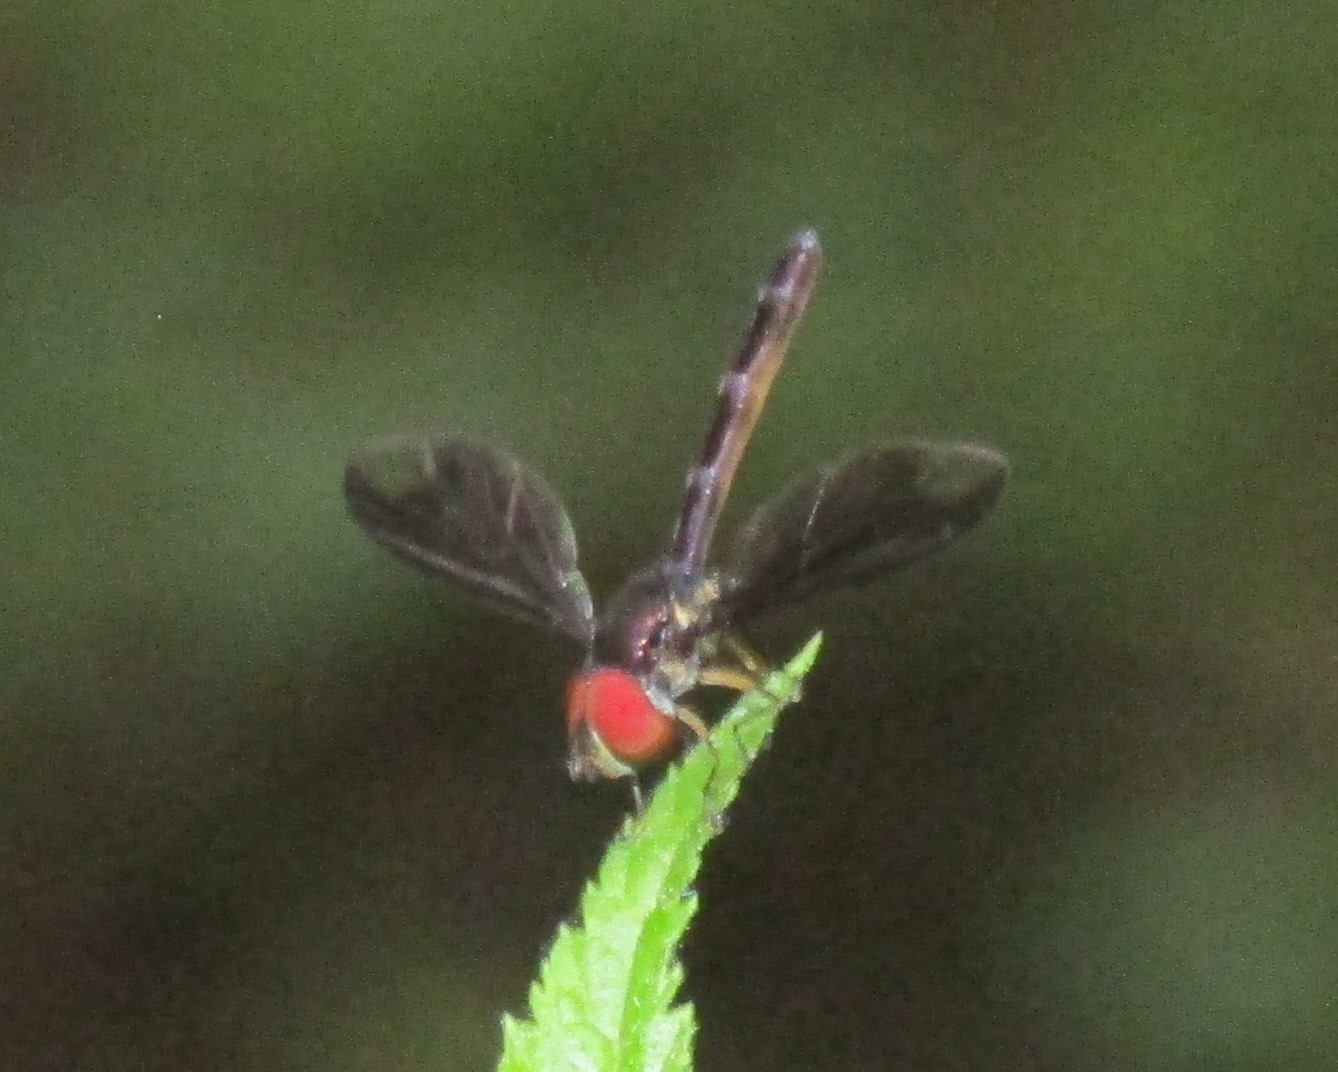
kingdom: Animalia
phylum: Arthropoda
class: Insecta
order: Diptera
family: Syrphidae
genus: Ocyptamus
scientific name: Ocyptamus fuscipennis
